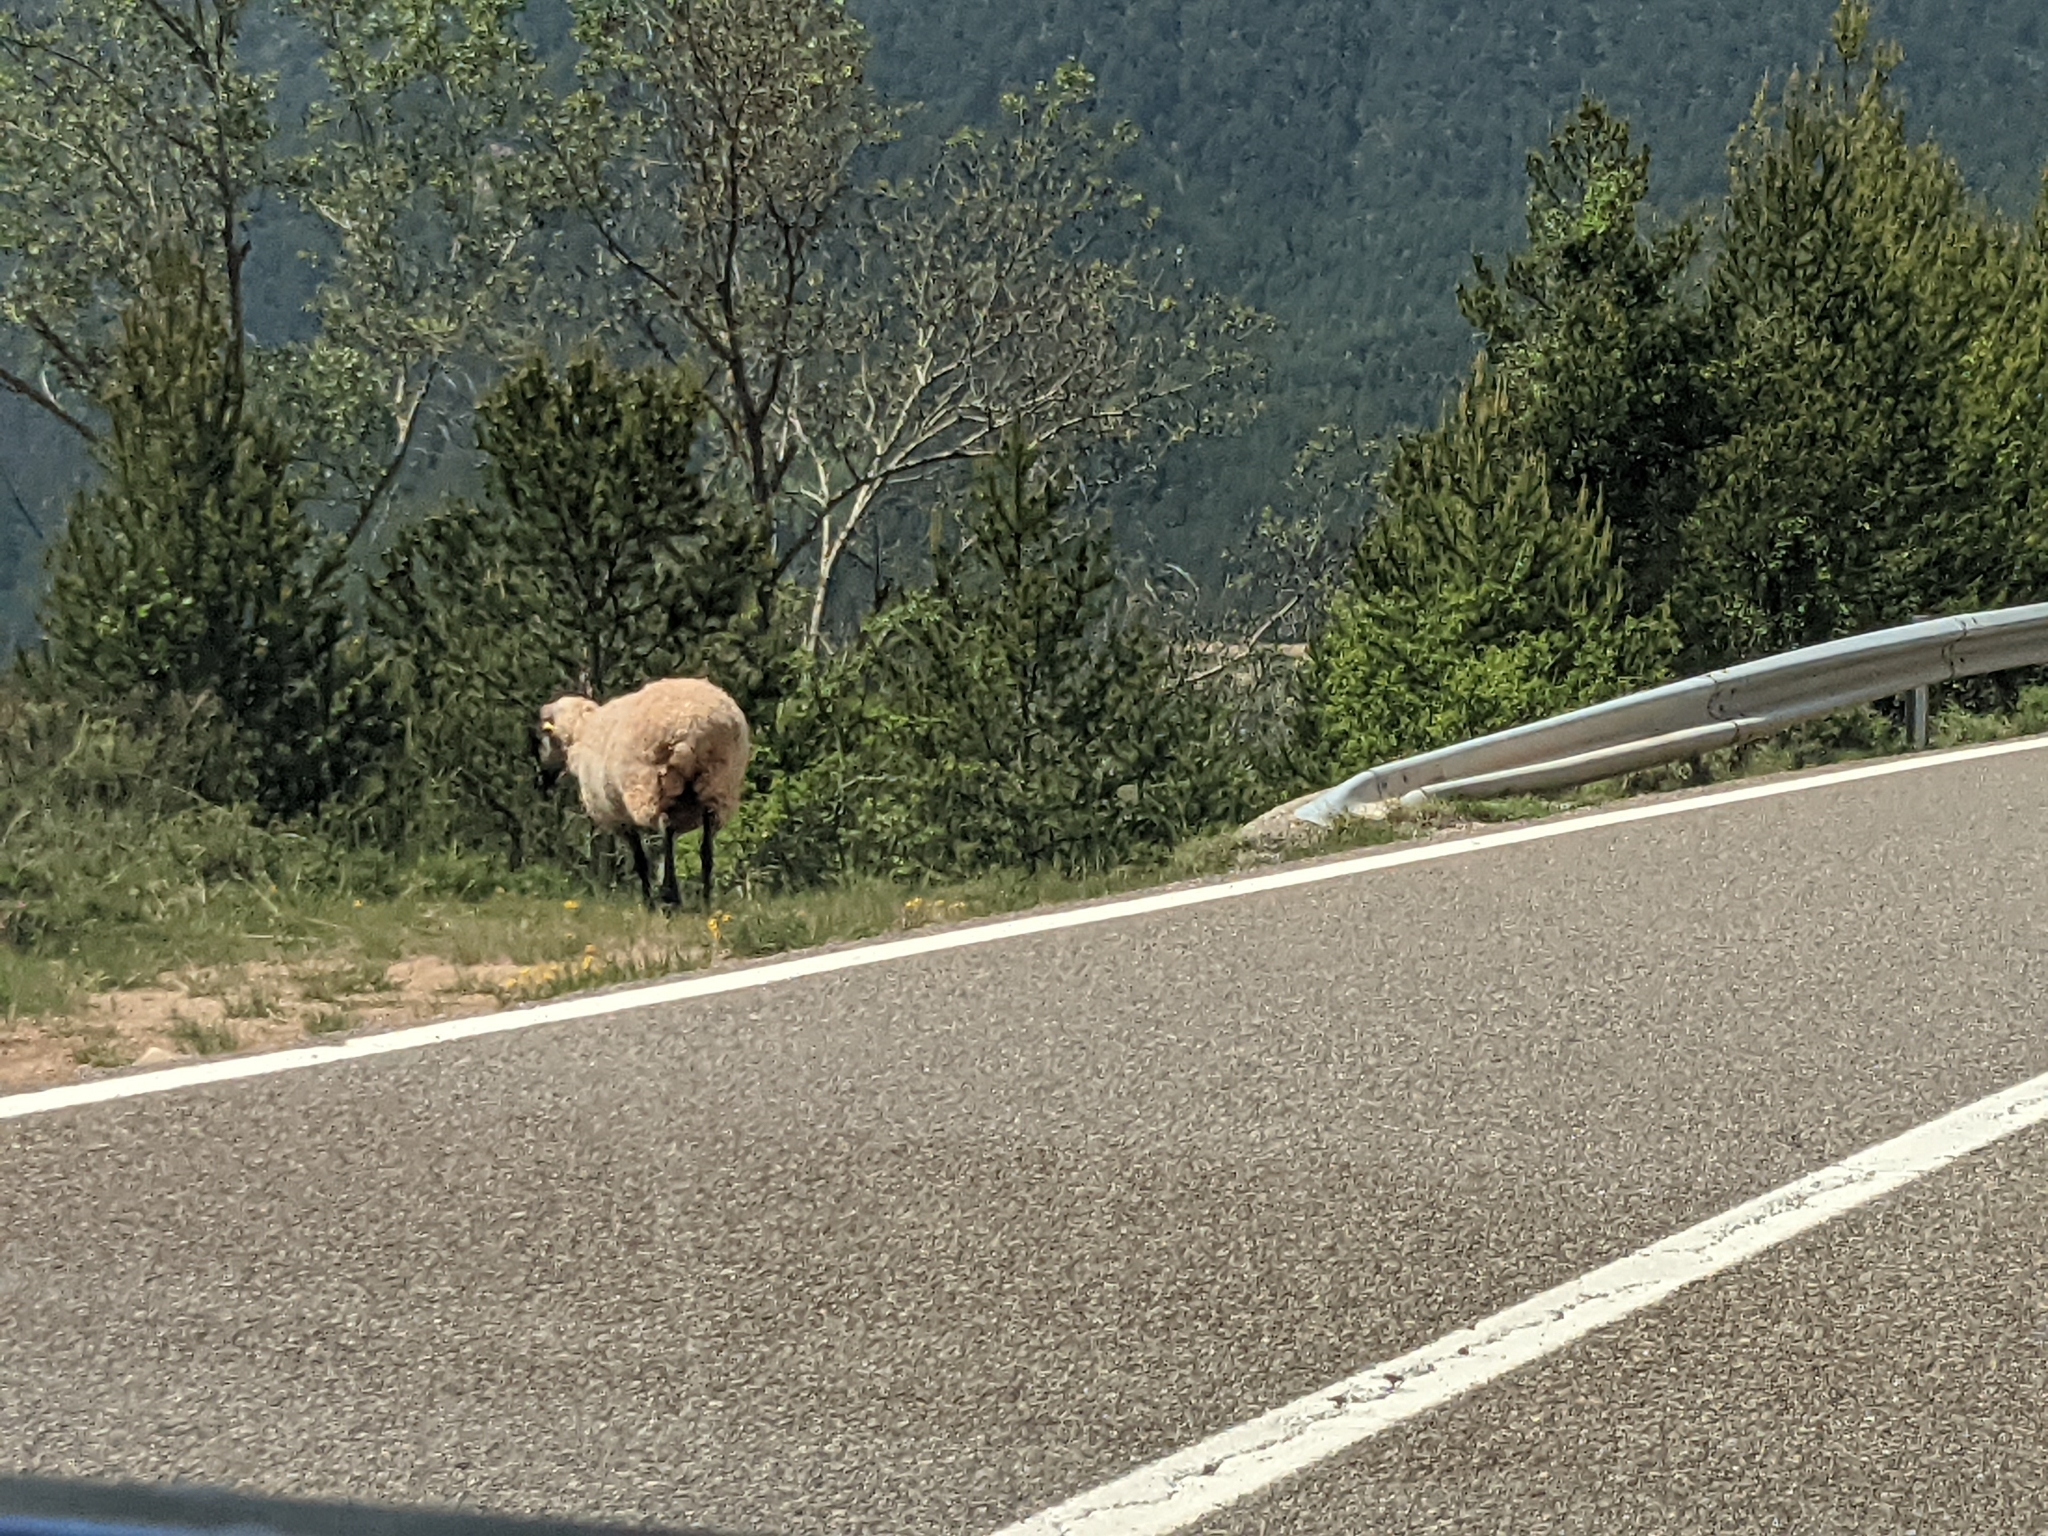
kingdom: Animalia
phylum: Chordata
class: Mammalia
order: Artiodactyla
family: Bovidae
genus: Ovis
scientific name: Ovis aries
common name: Domestic sheep
